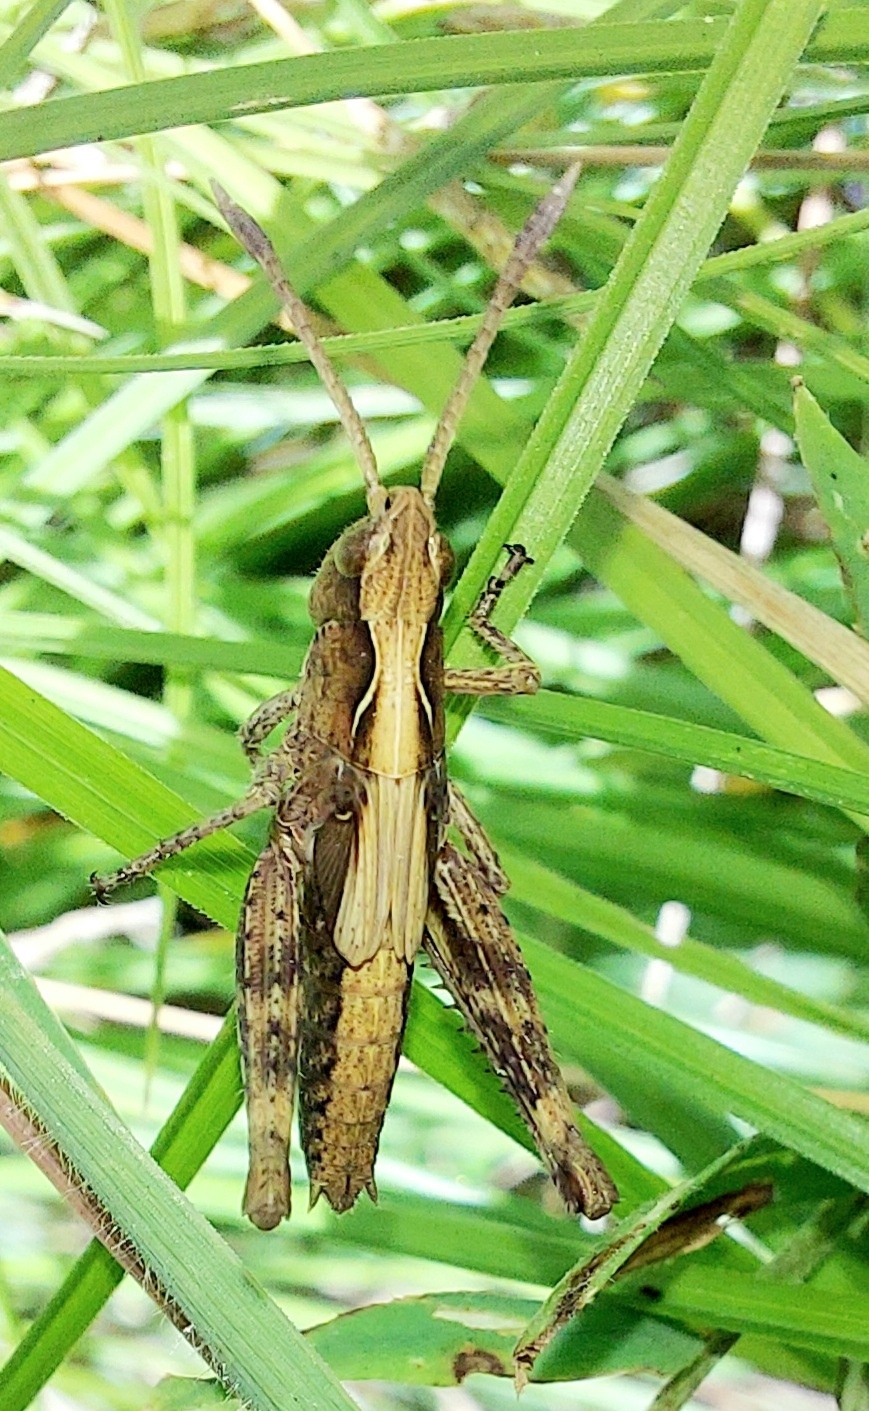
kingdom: Animalia
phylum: Arthropoda
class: Insecta
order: Orthoptera
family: Acrididae
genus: Gomphocerippus
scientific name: Gomphocerippus rufus
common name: Rufous grasshopper
